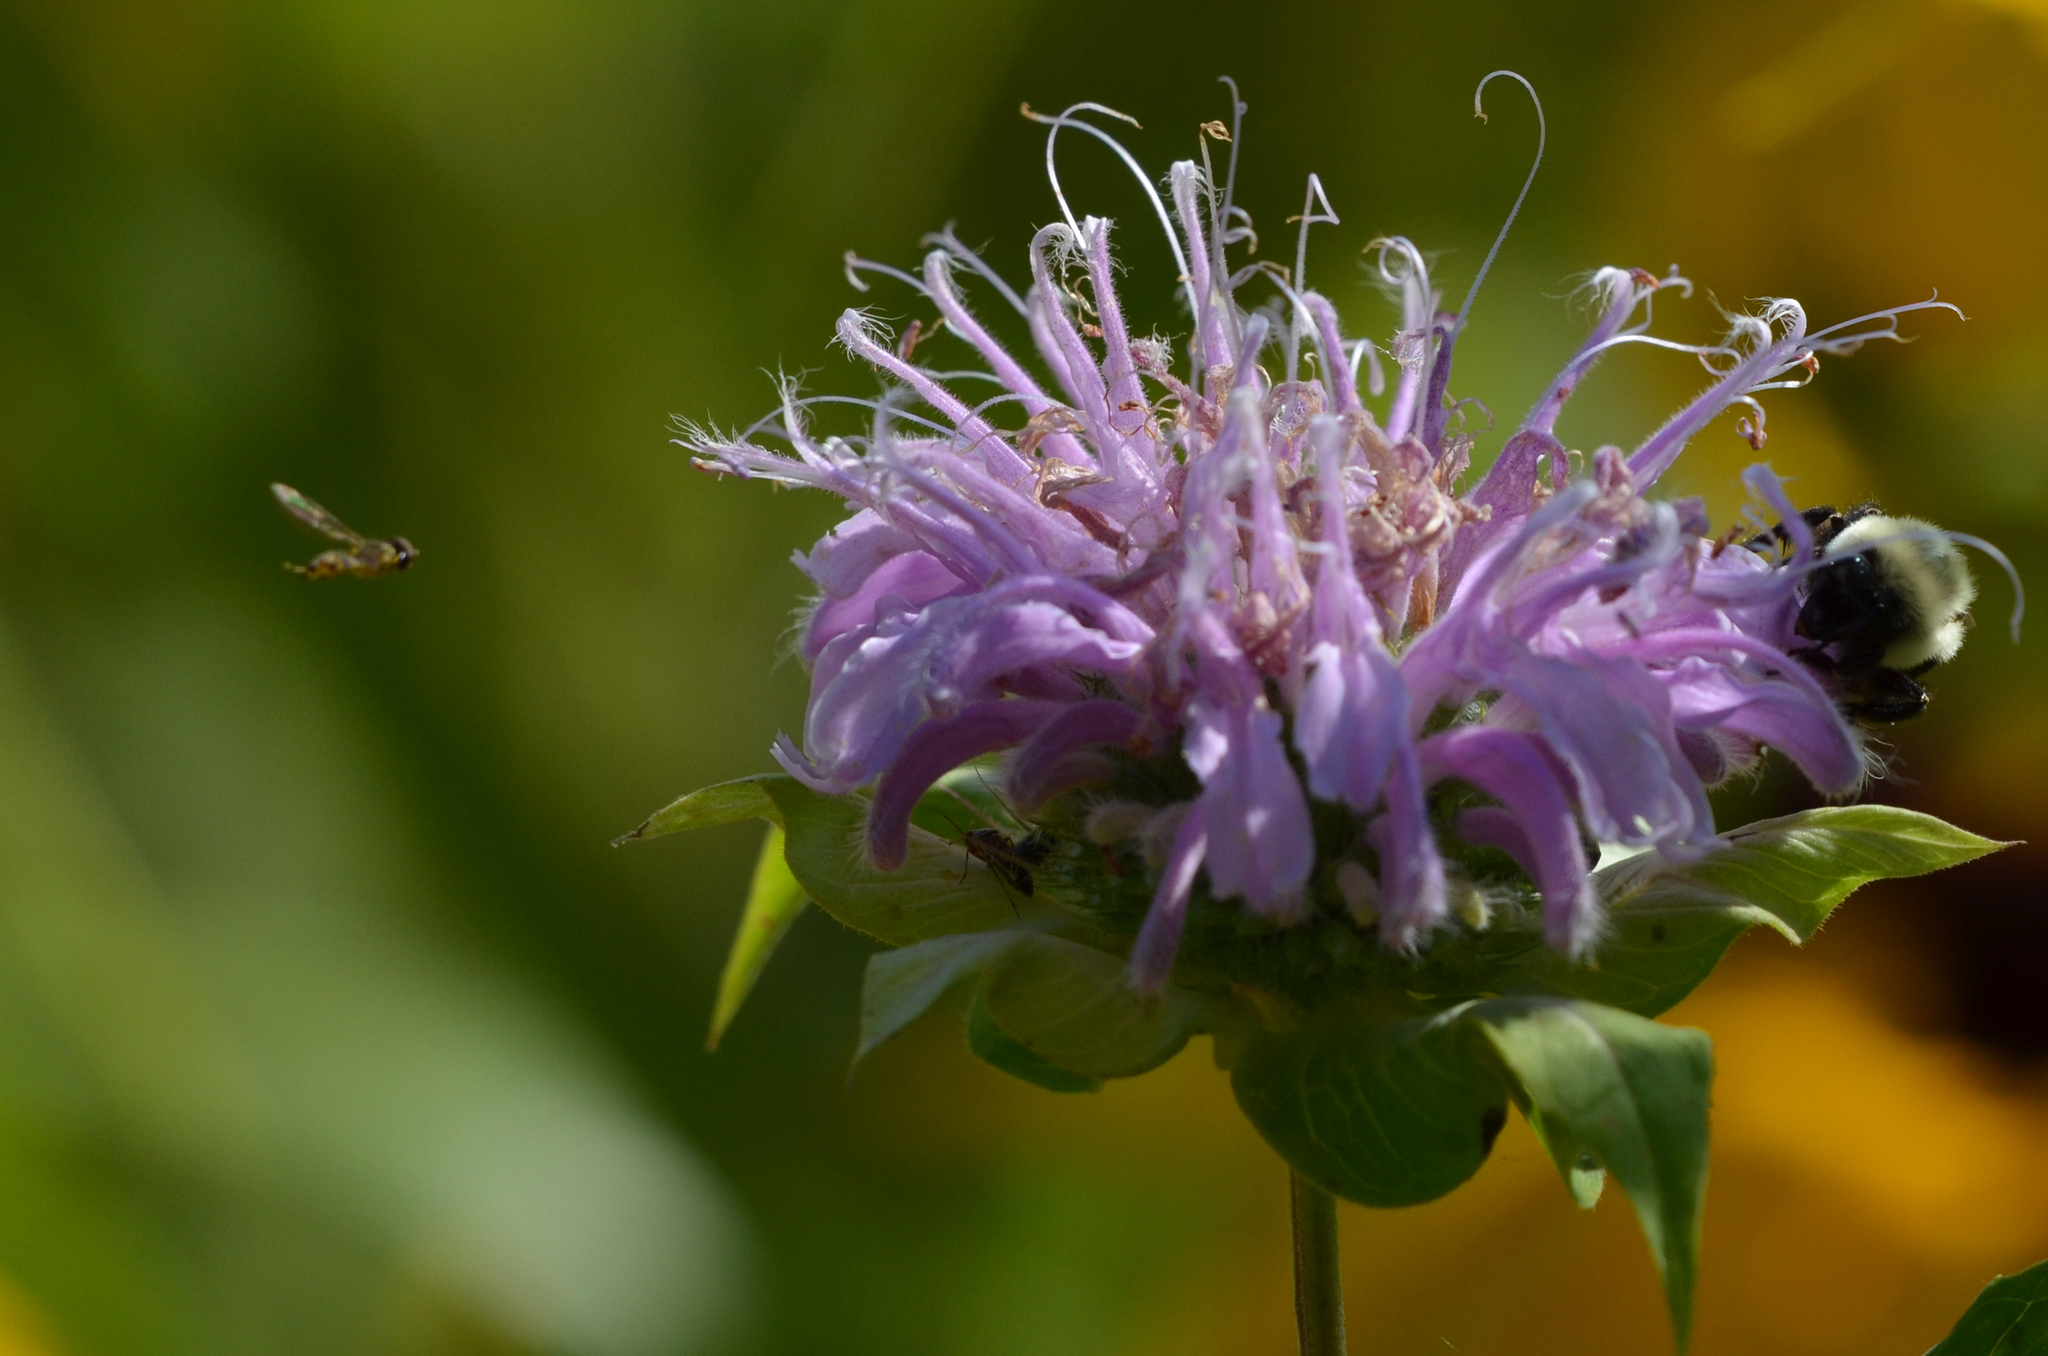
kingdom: Animalia
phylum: Arthropoda
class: Insecta
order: Hymenoptera
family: Apidae
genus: Bombus
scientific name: Bombus impatiens
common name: Common eastern bumble bee
